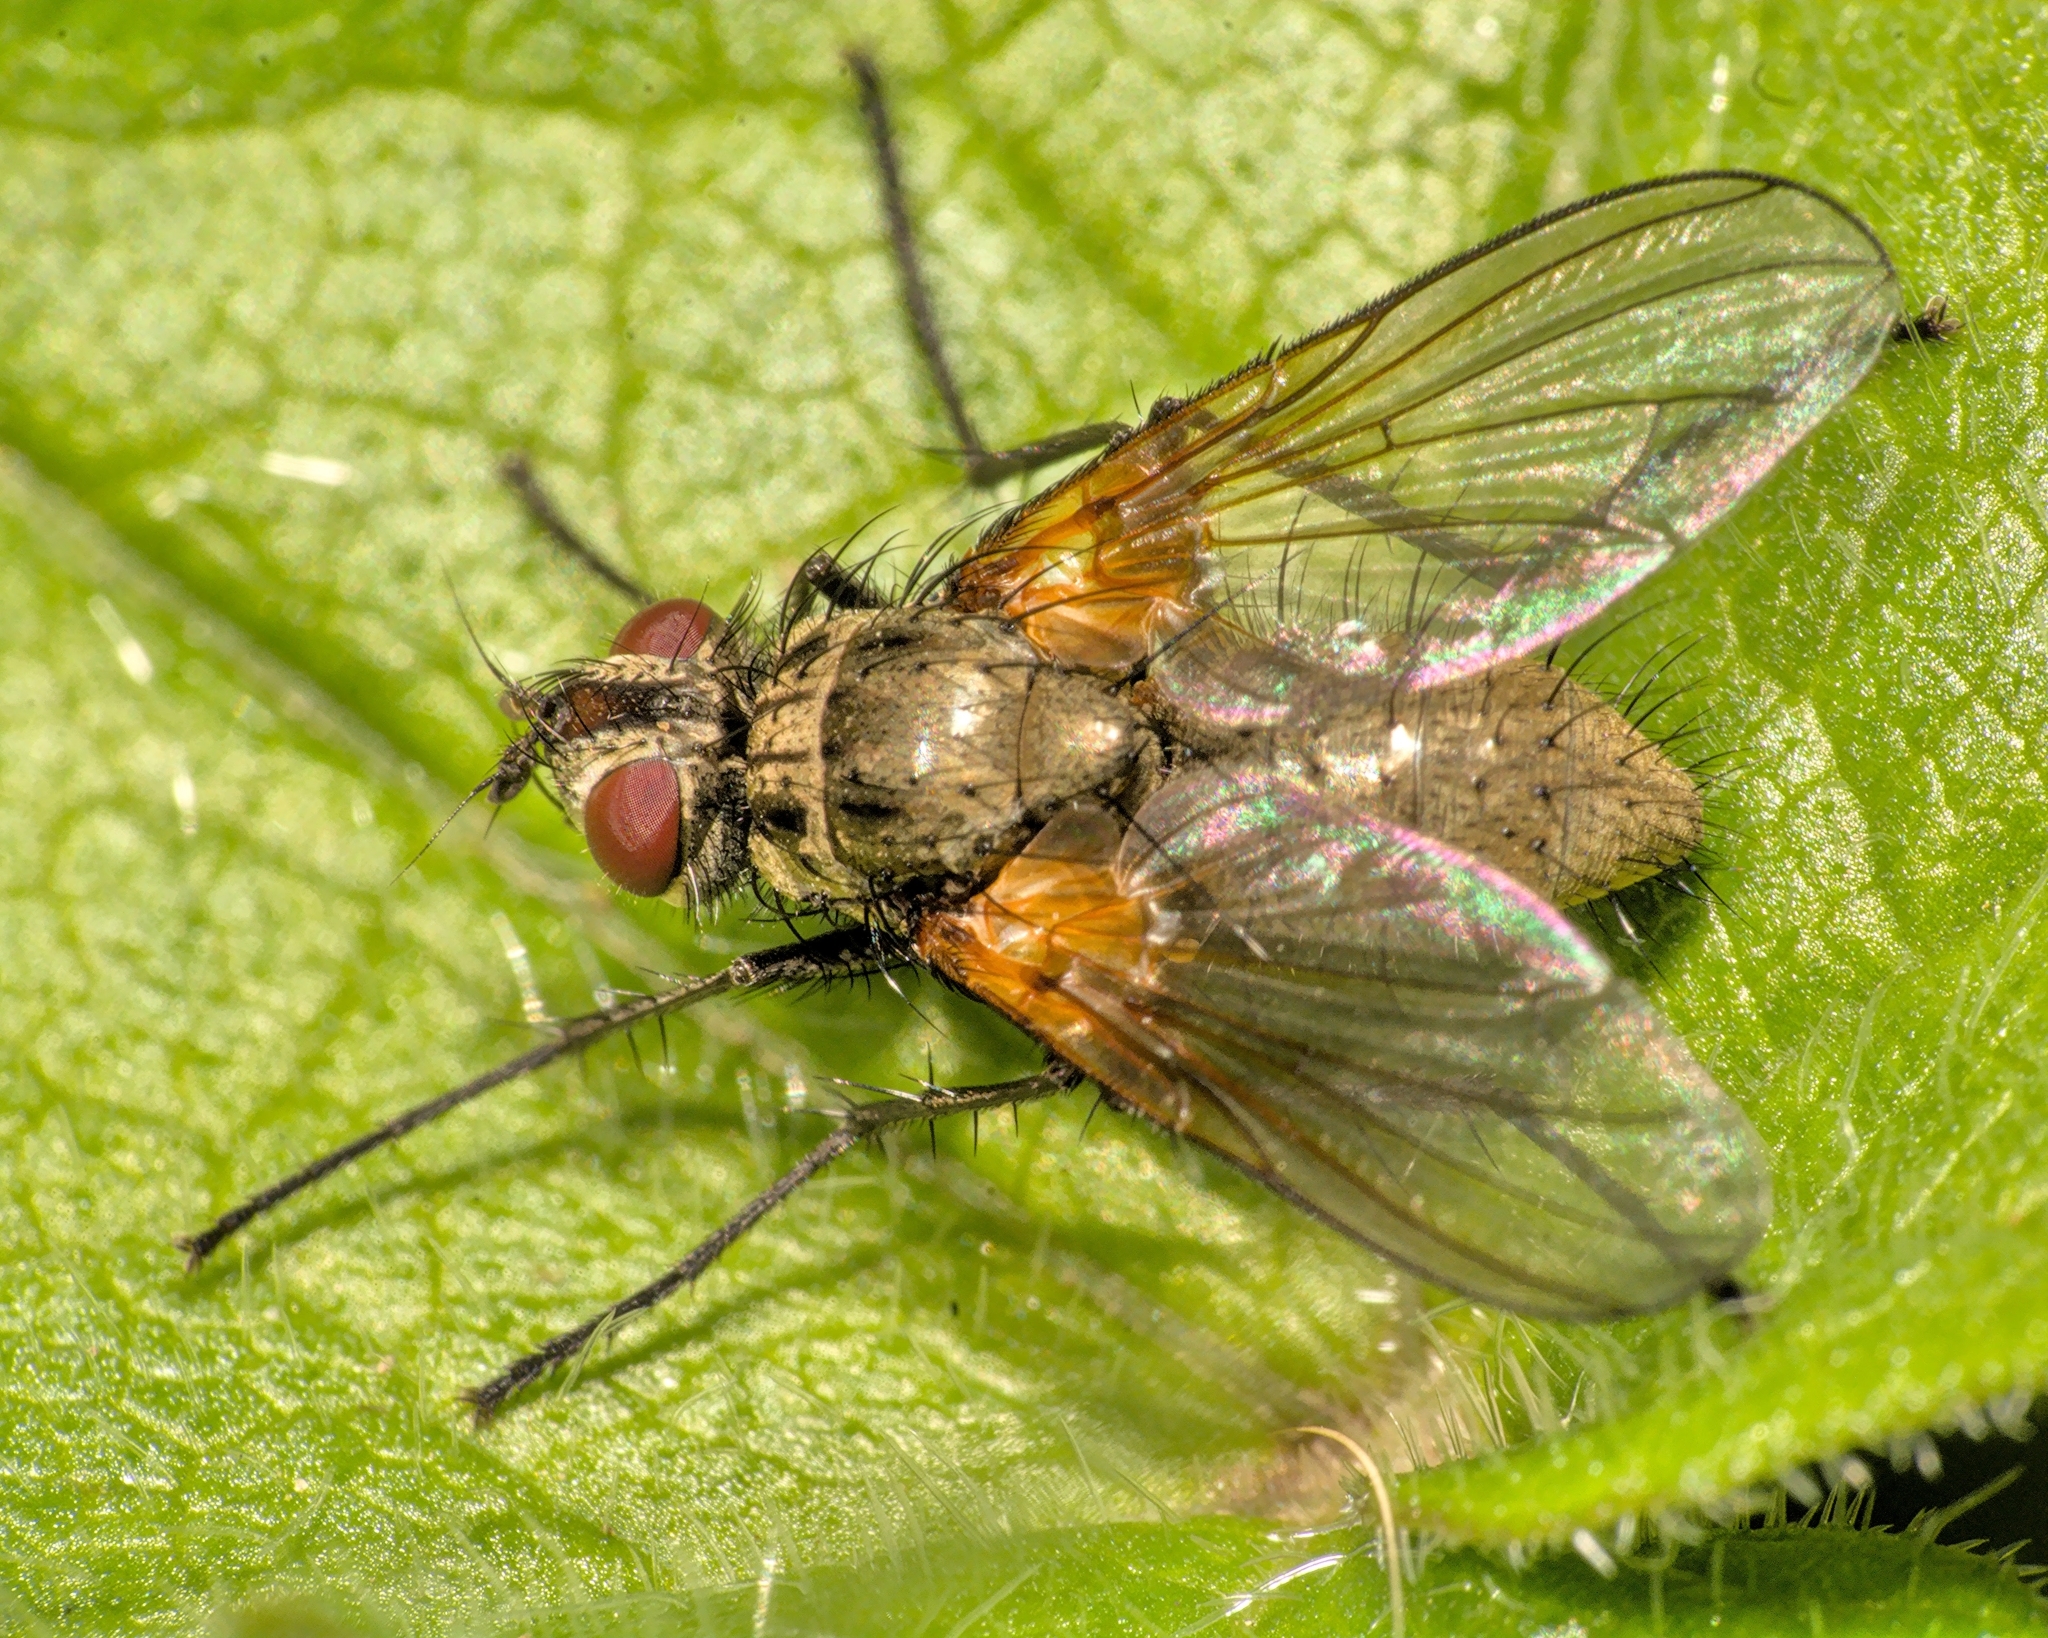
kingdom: Animalia
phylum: Arthropoda
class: Insecta
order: Diptera
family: Tachinidae
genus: Macquartia
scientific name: Macquartia grisea
